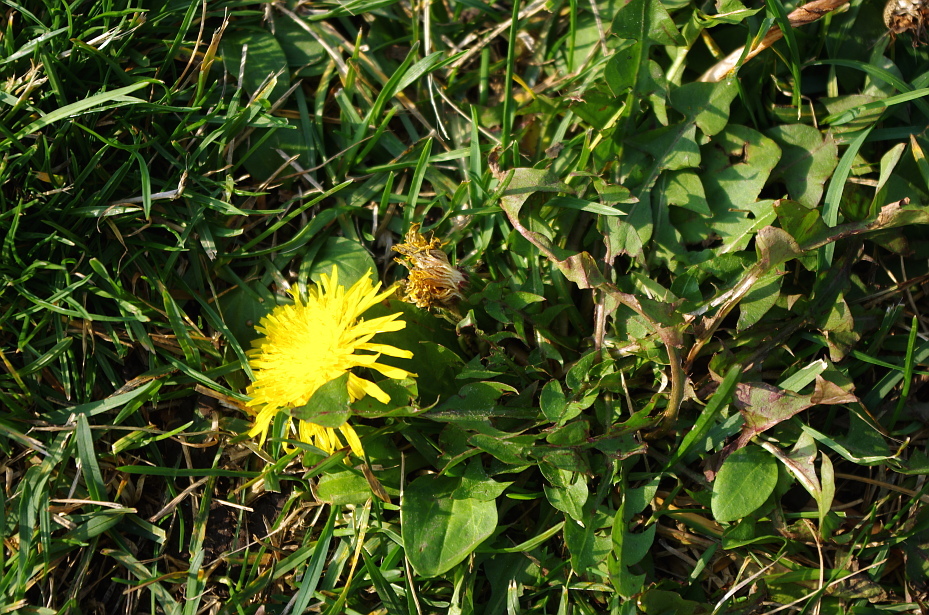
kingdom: Plantae
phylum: Tracheophyta
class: Magnoliopsida
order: Asterales
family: Asteraceae
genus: Taraxacum
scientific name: Taraxacum officinale
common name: Common dandelion
